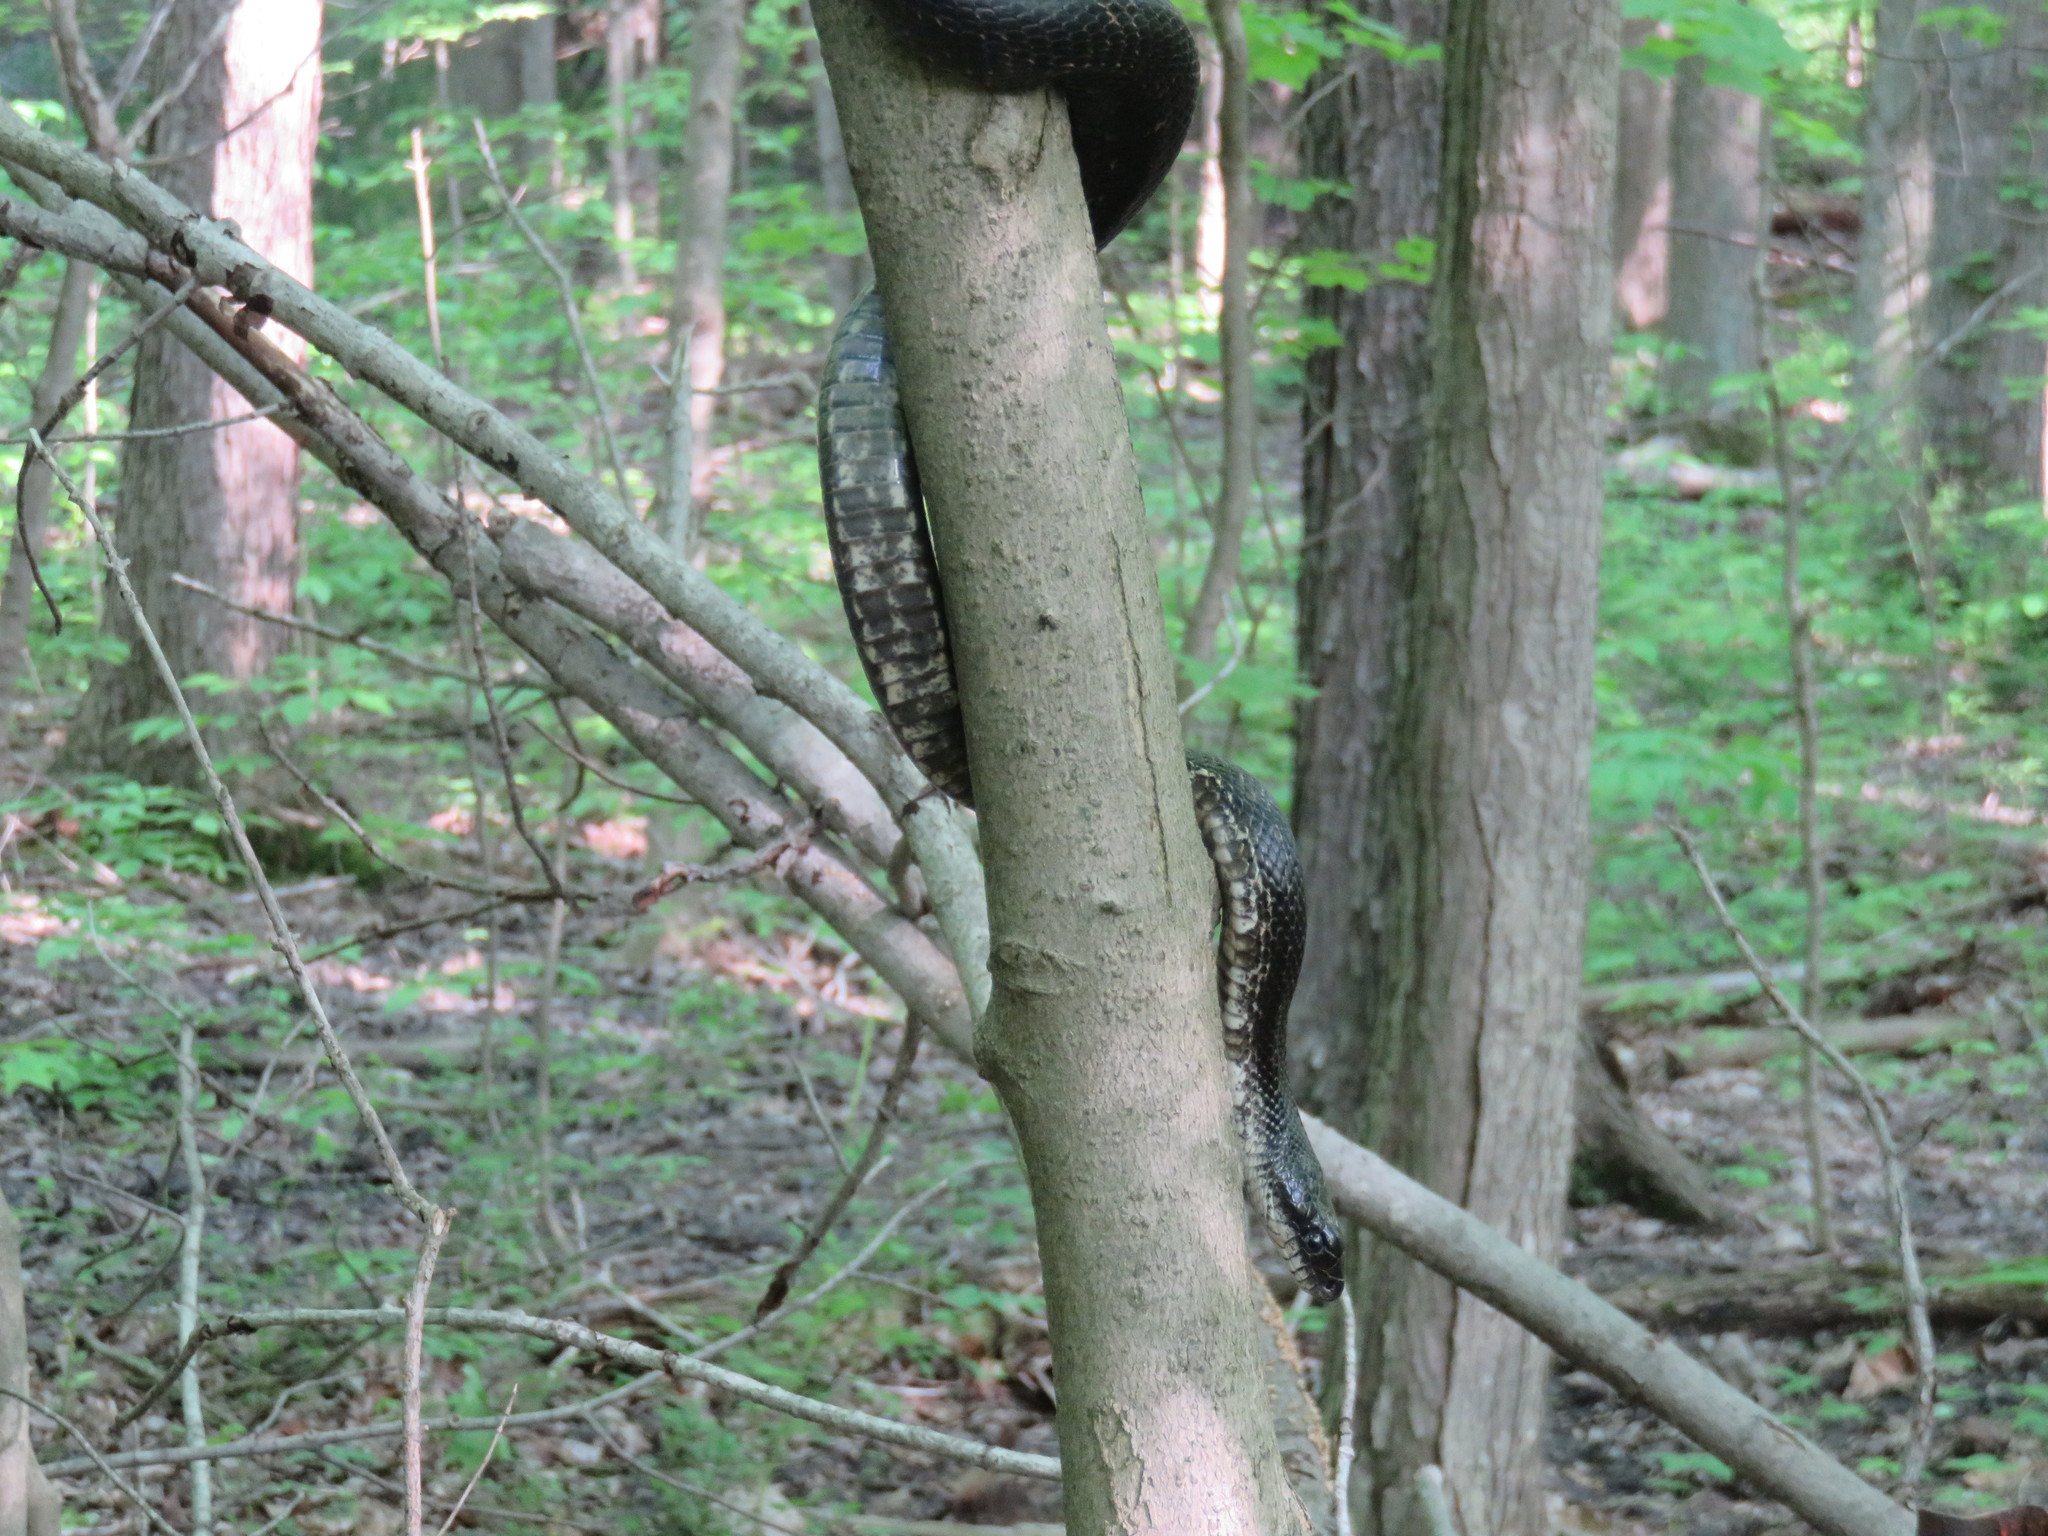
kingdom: Animalia
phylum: Chordata
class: Squamata
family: Colubridae
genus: Pantherophis
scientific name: Pantherophis spiloides
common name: Gray rat snake
